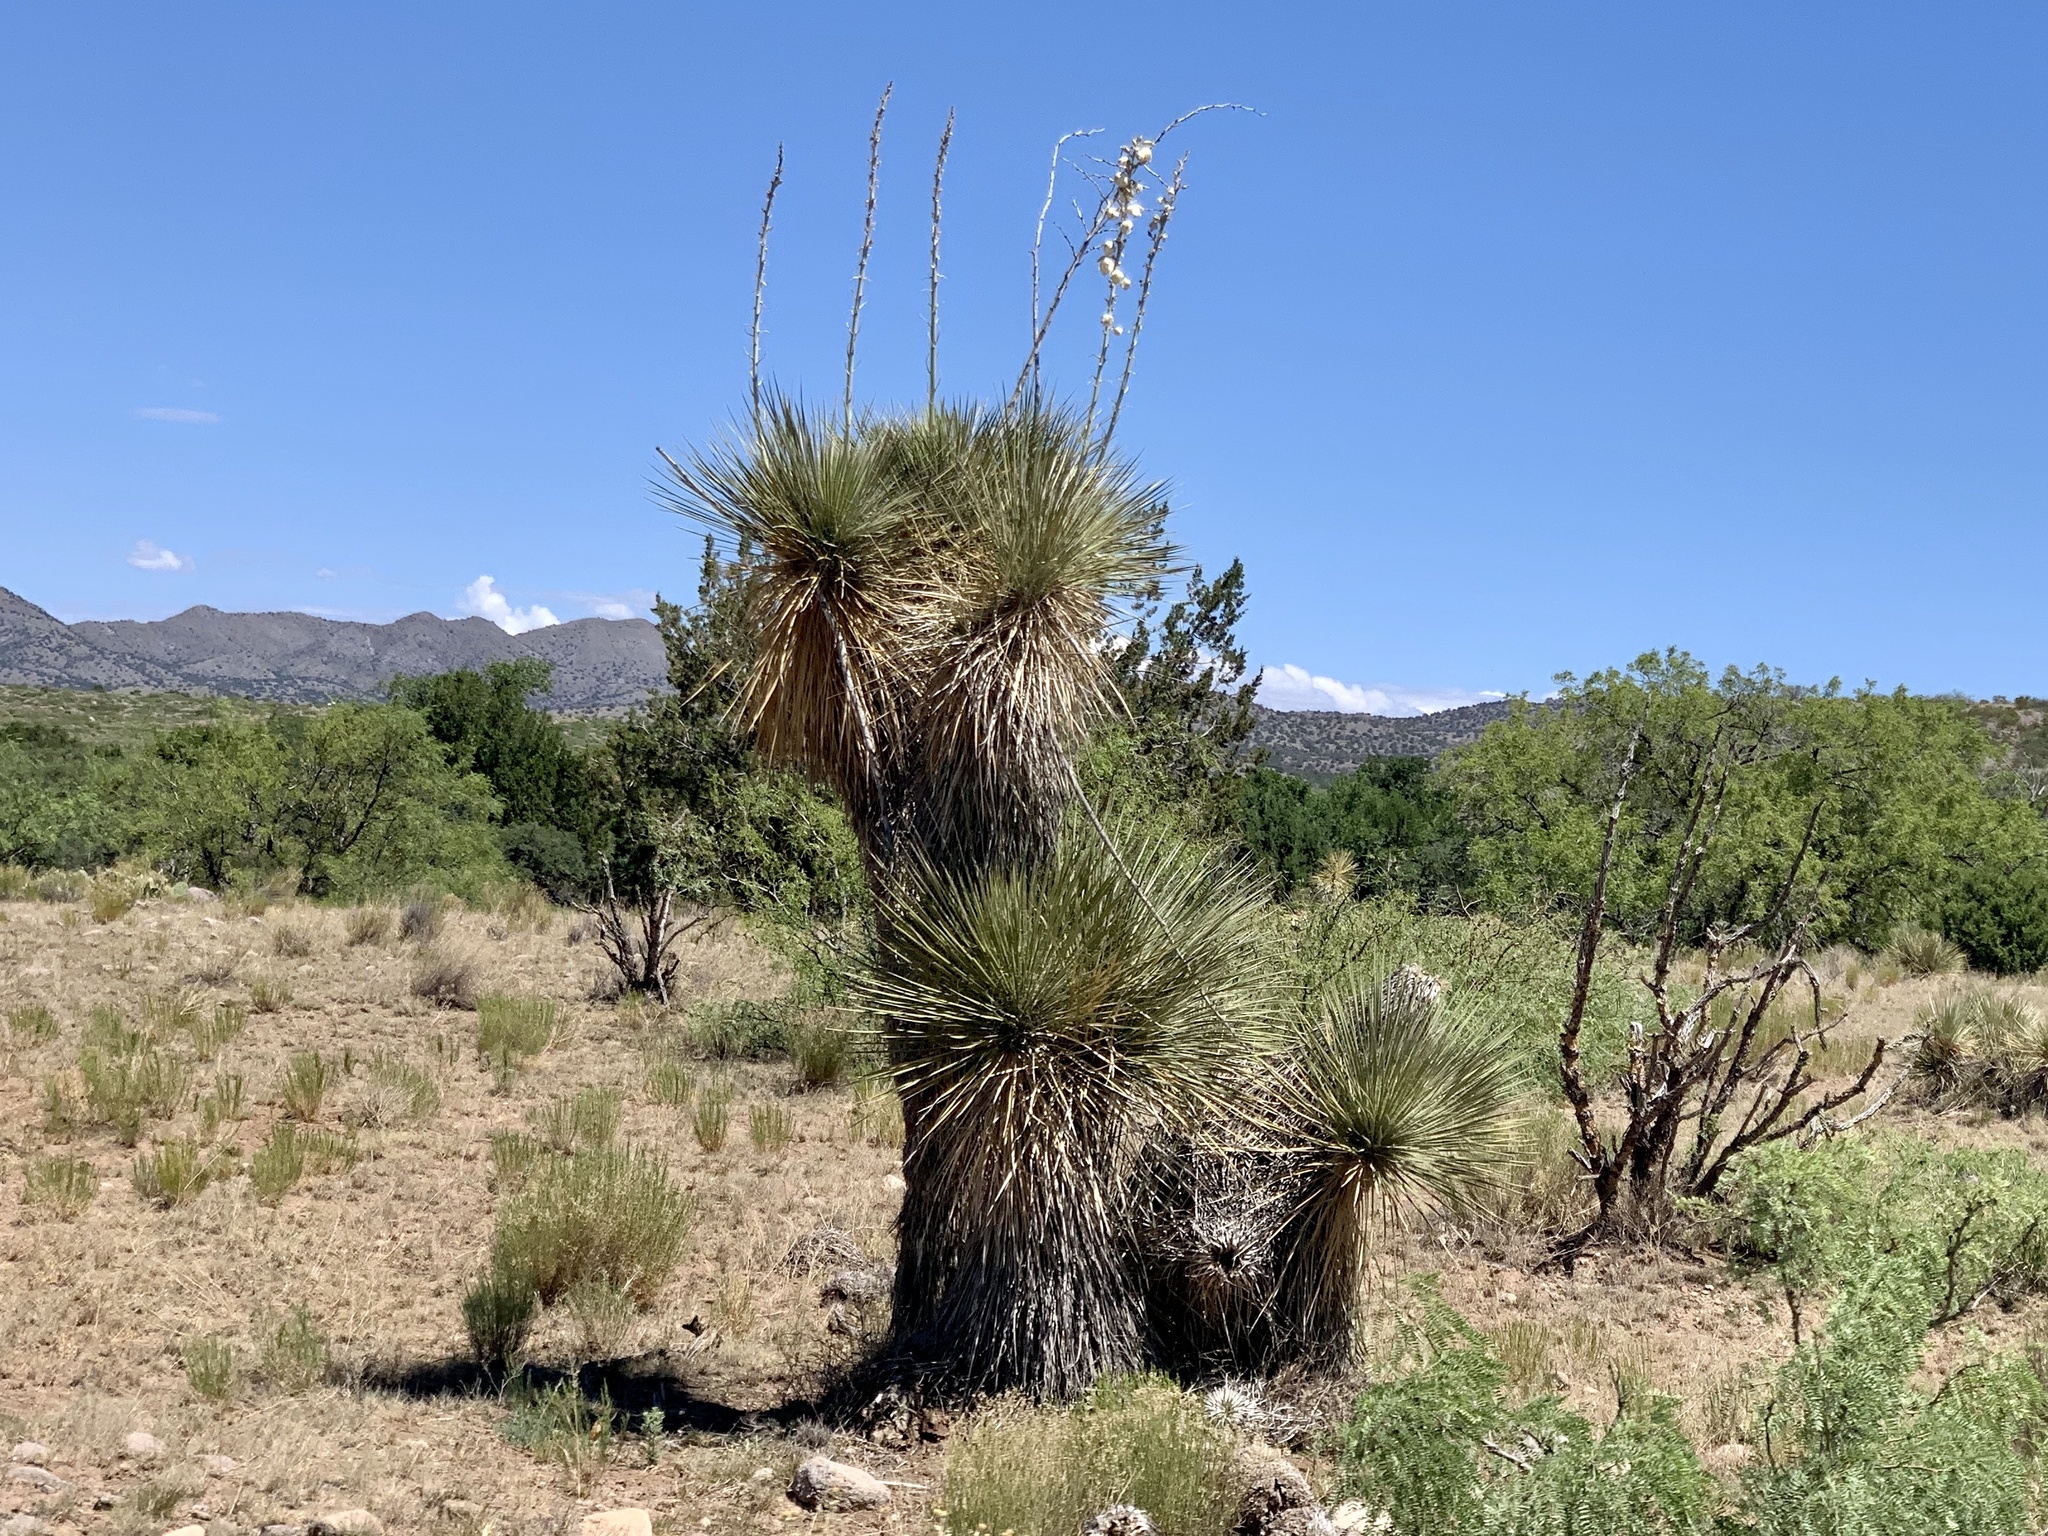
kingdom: Plantae
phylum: Tracheophyta
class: Liliopsida
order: Asparagales
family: Asparagaceae
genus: Yucca
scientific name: Yucca elata
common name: Palmella
